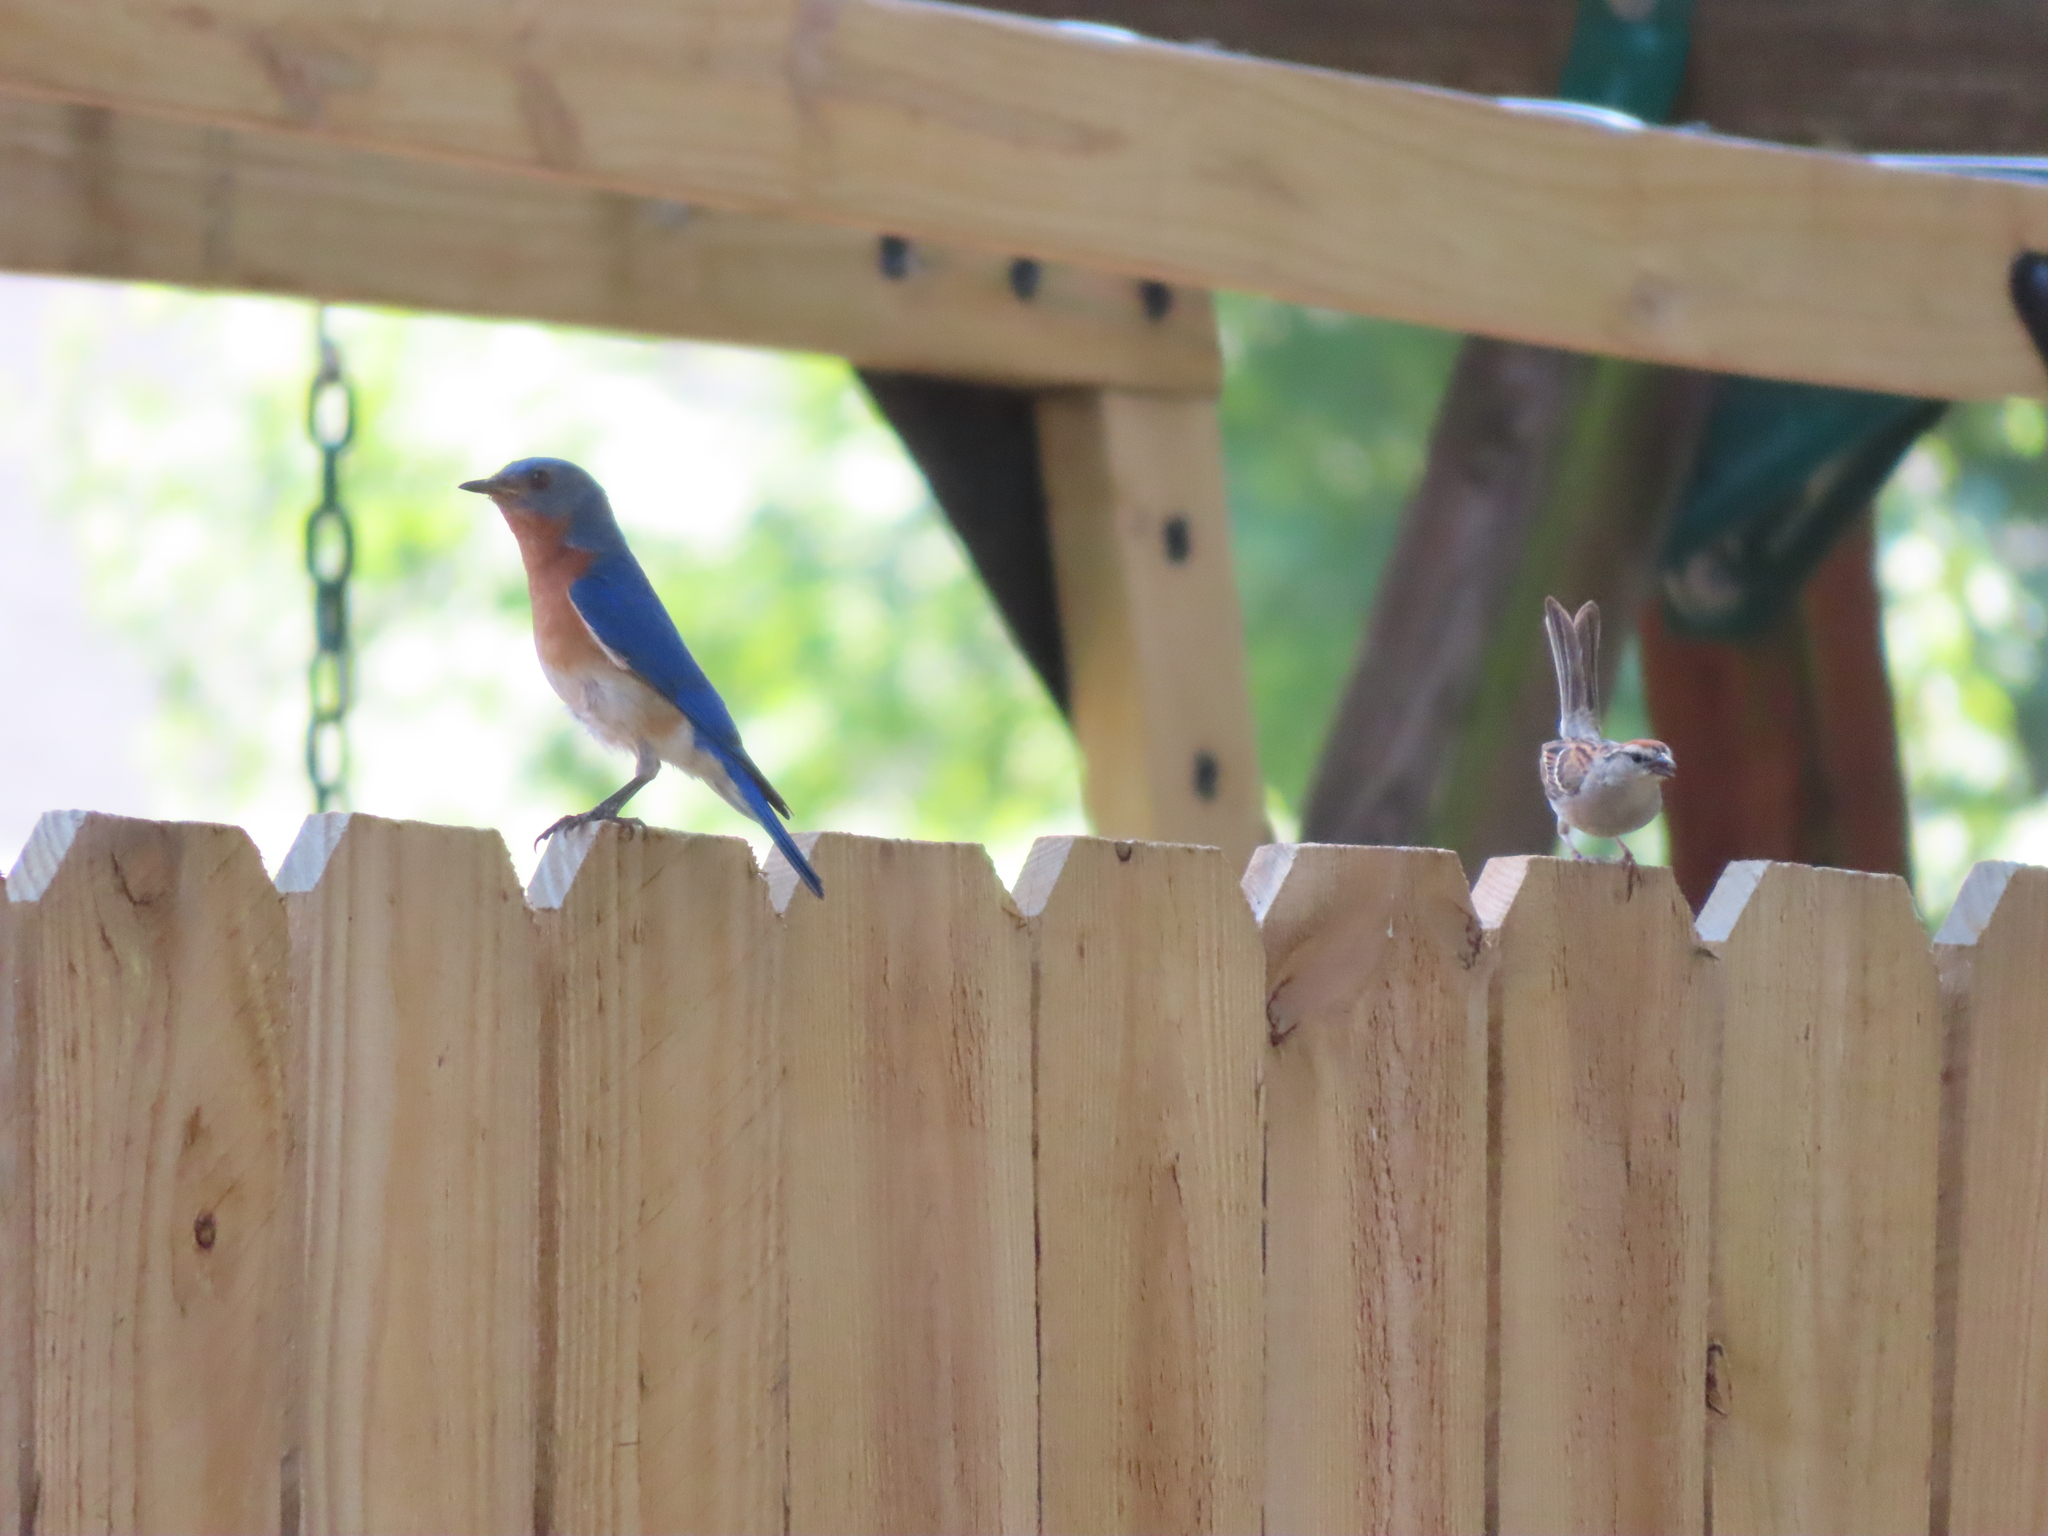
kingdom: Animalia
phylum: Chordata
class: Aves
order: Passeriformes
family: Turdidae
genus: Sialia
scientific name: Sialia sialis
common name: Eastern bluebird
